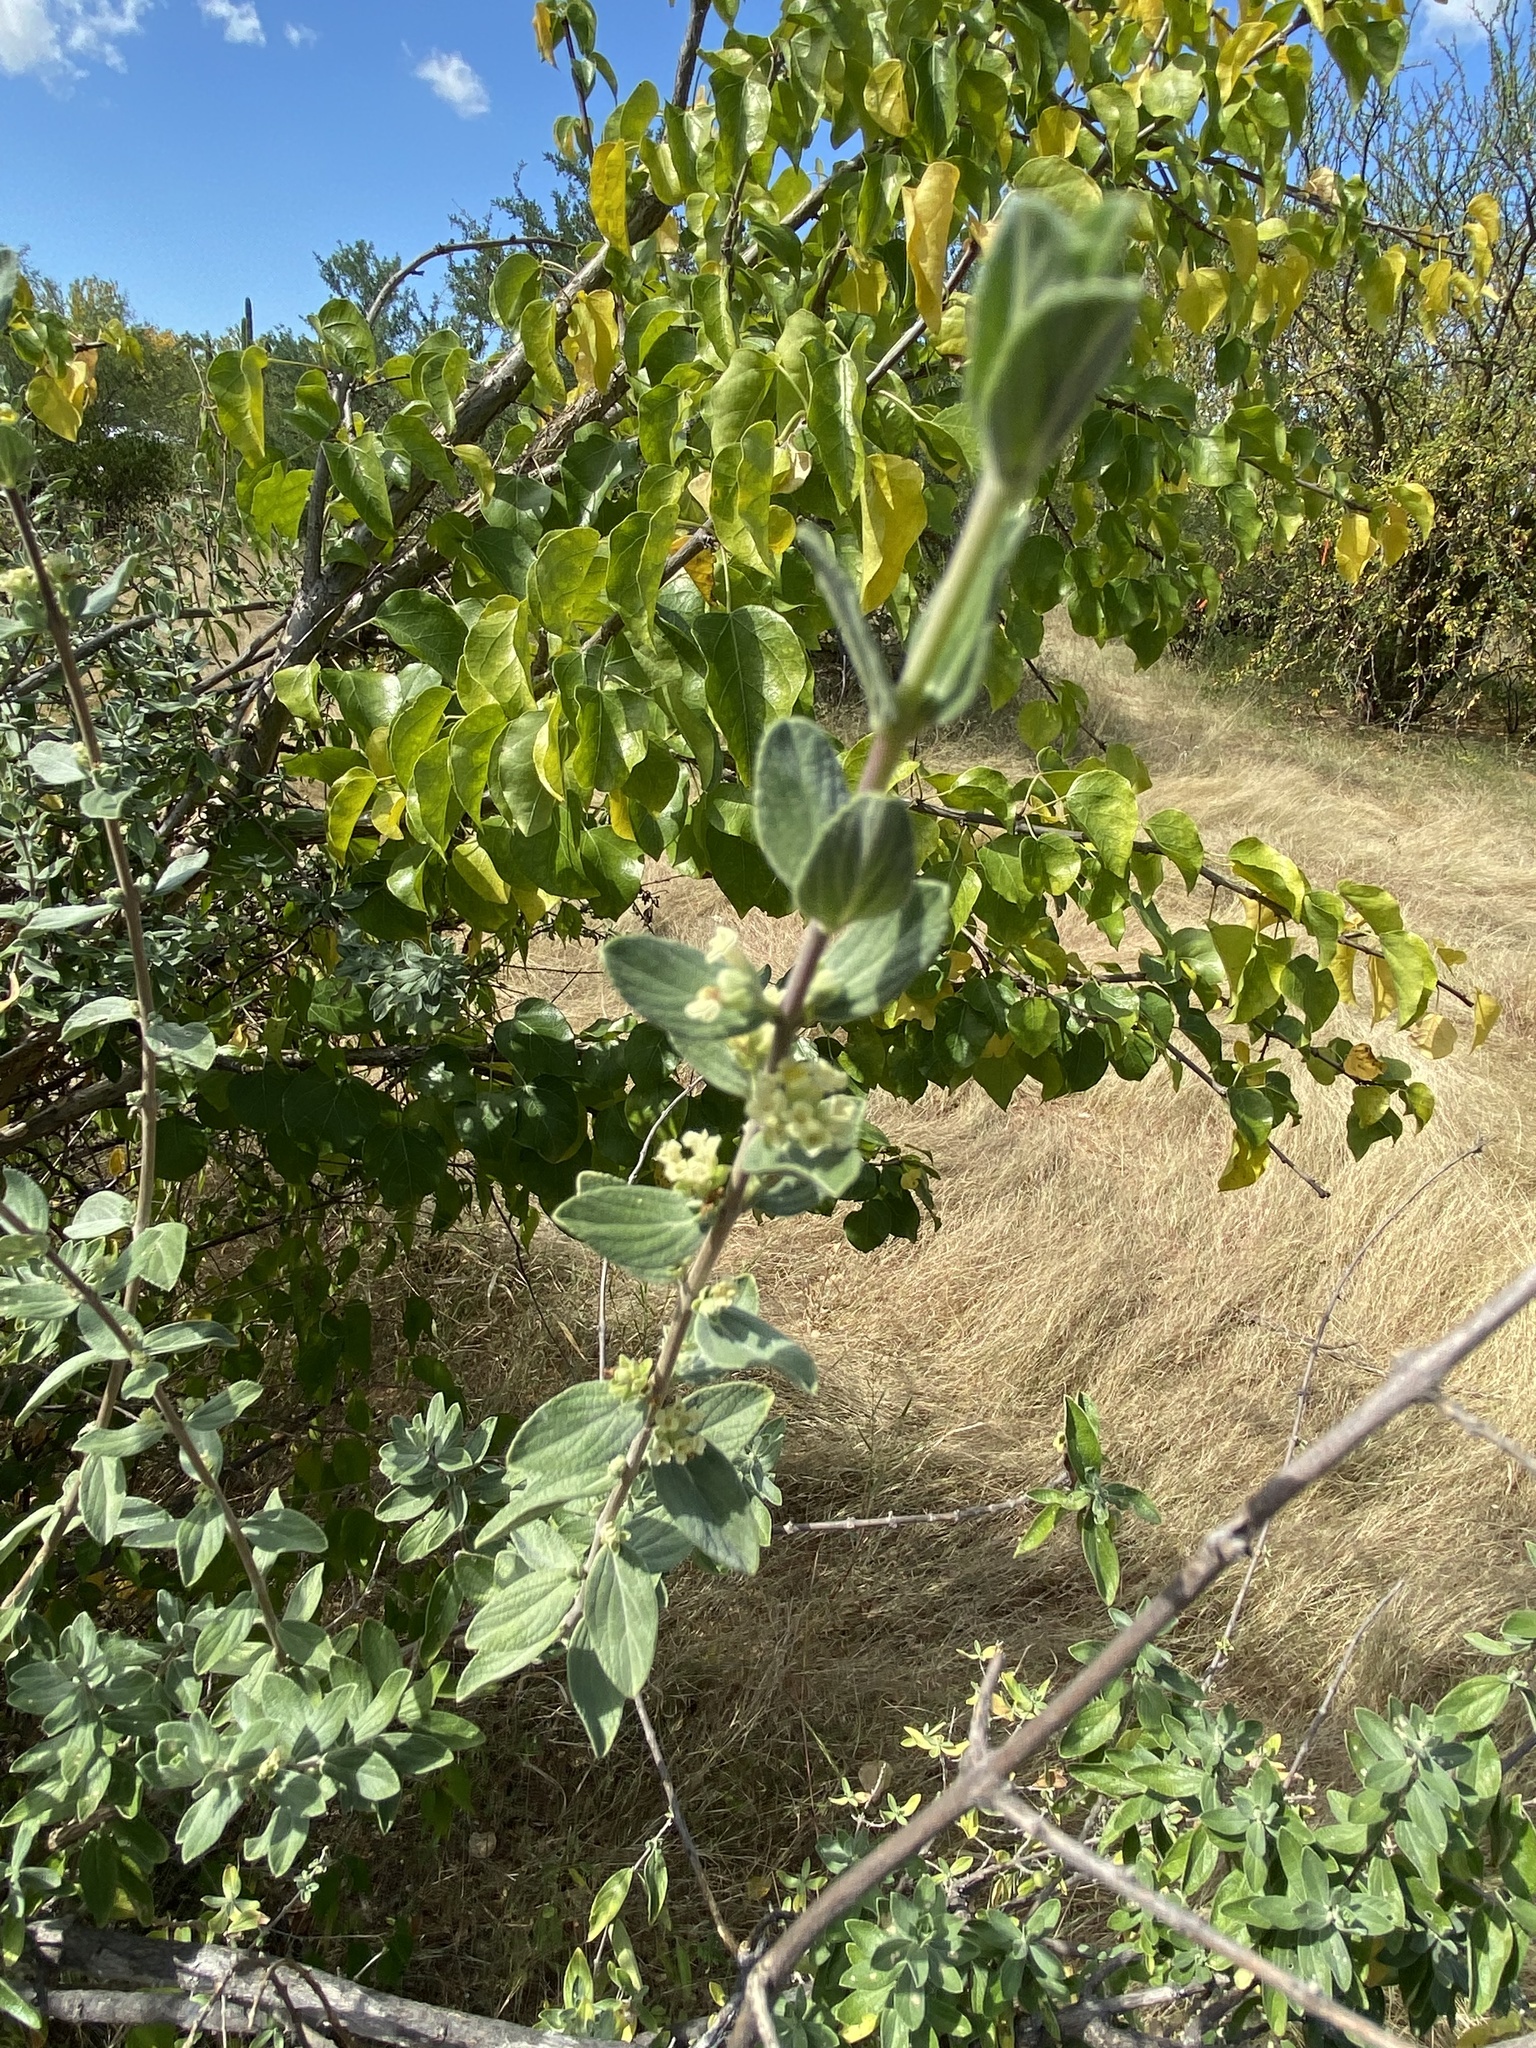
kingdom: Plantae
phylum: Tracheophyta
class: Magnoliopsida
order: Lamiales
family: Verbenaceae
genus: Aloysia
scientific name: Aloysia sonorensis
